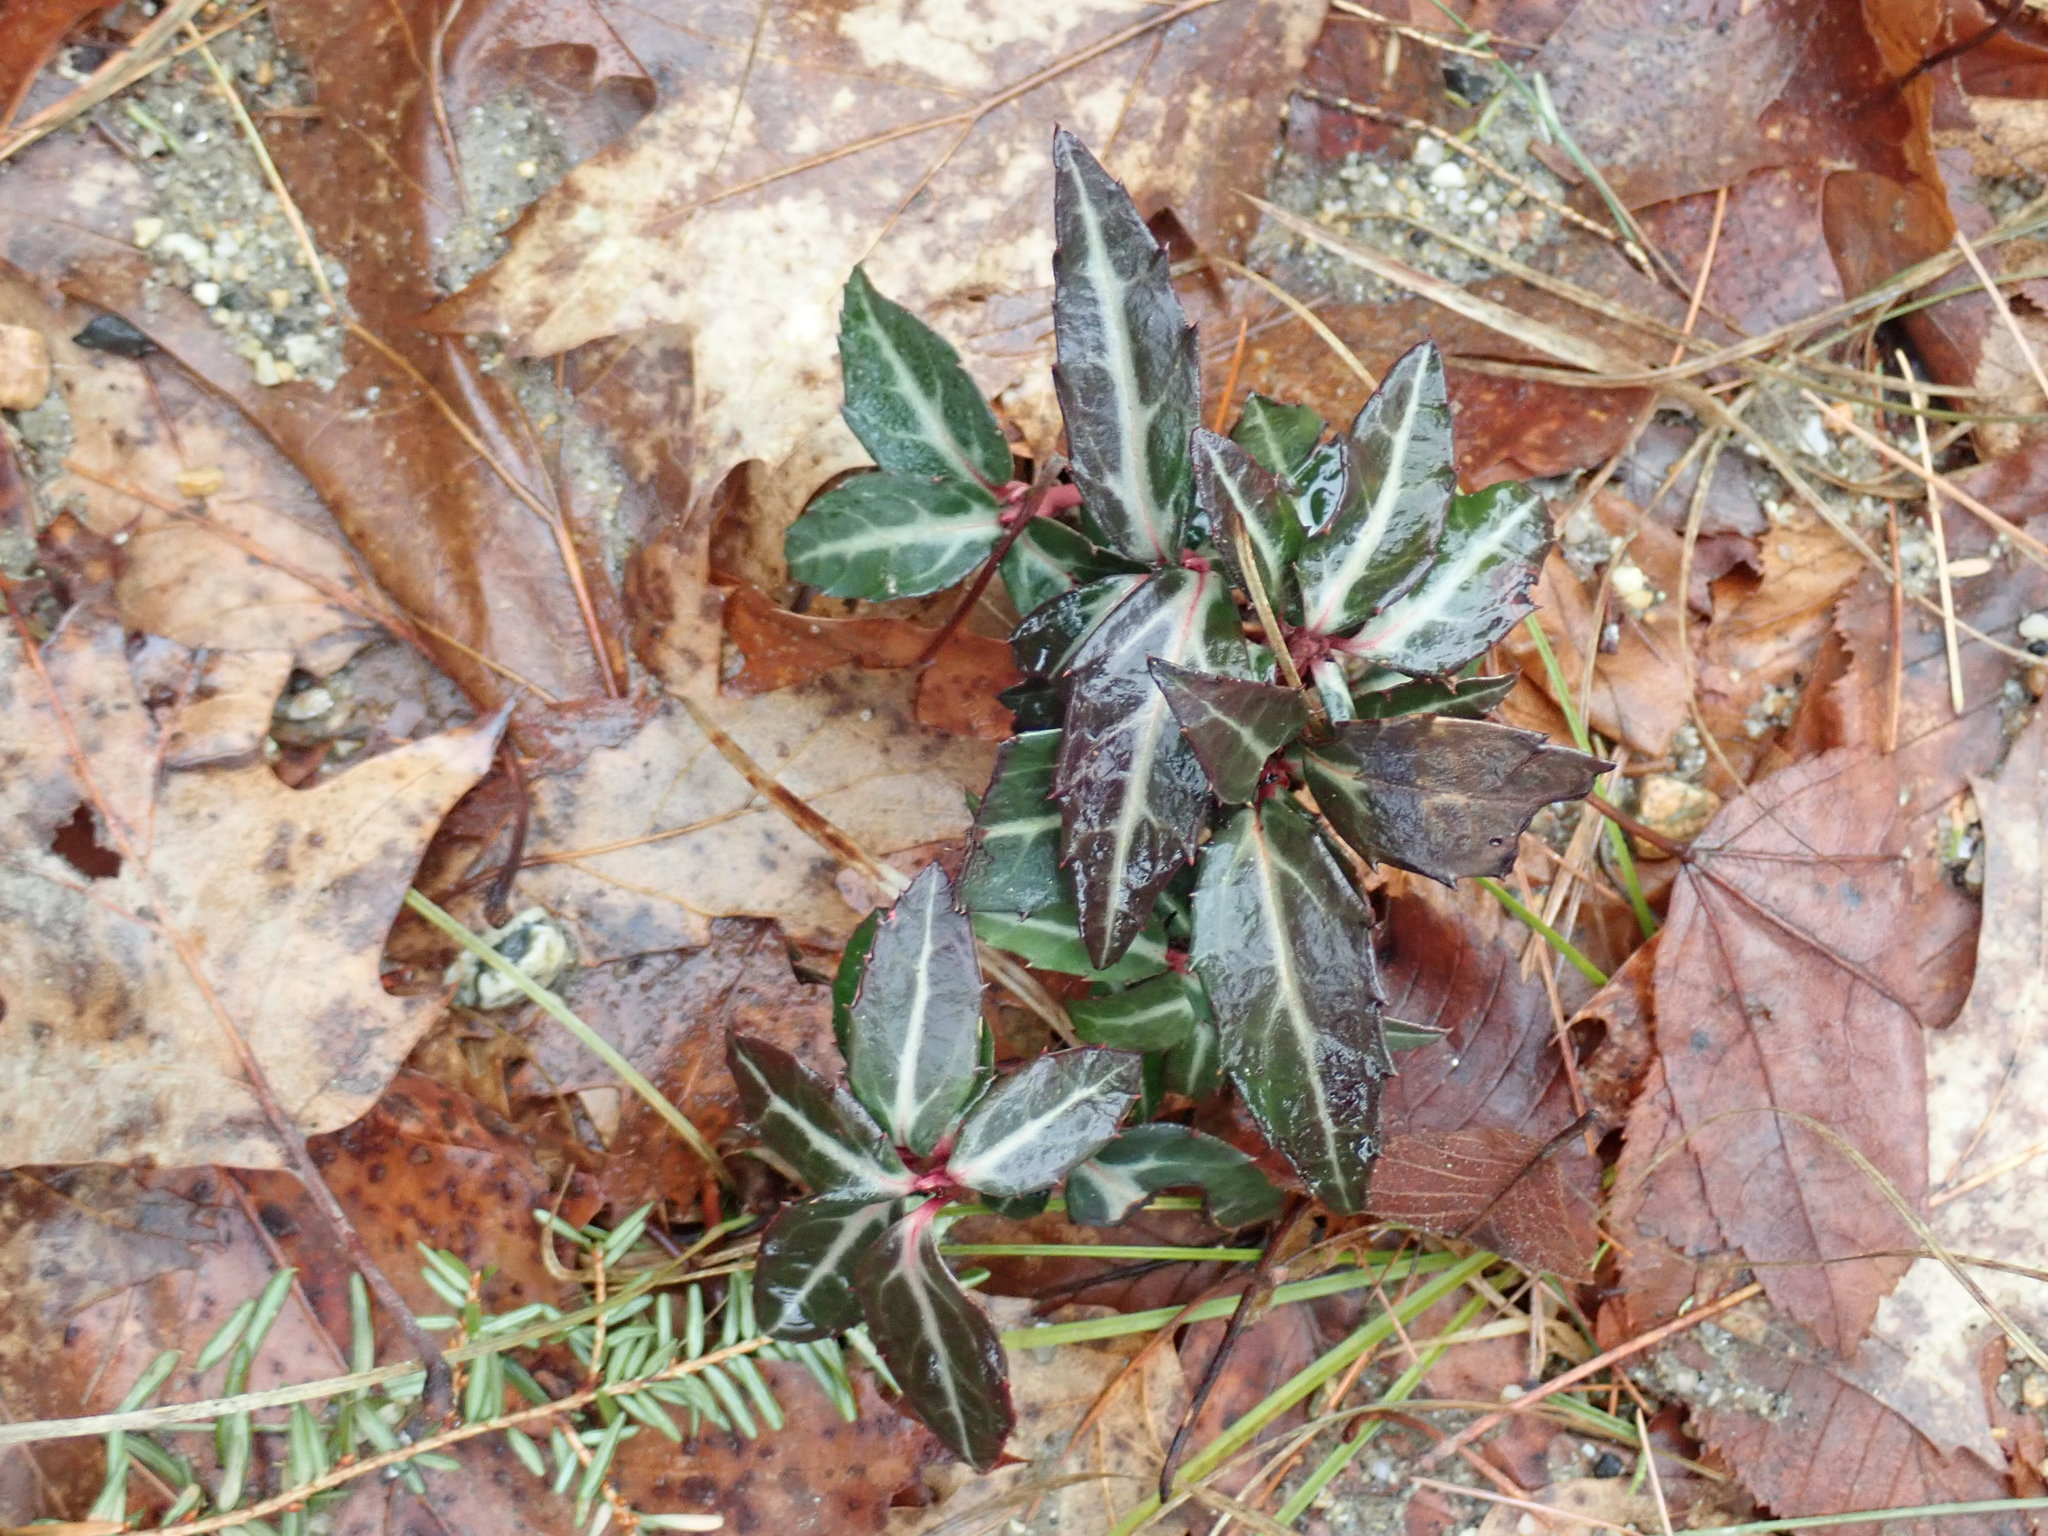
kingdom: Plantae
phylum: Tracheophyta
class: Magnoliopsida
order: Ericales
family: Ericaceae
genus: Chimaphila
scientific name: Chimaphila maculata
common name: Spotted pipsissewa
